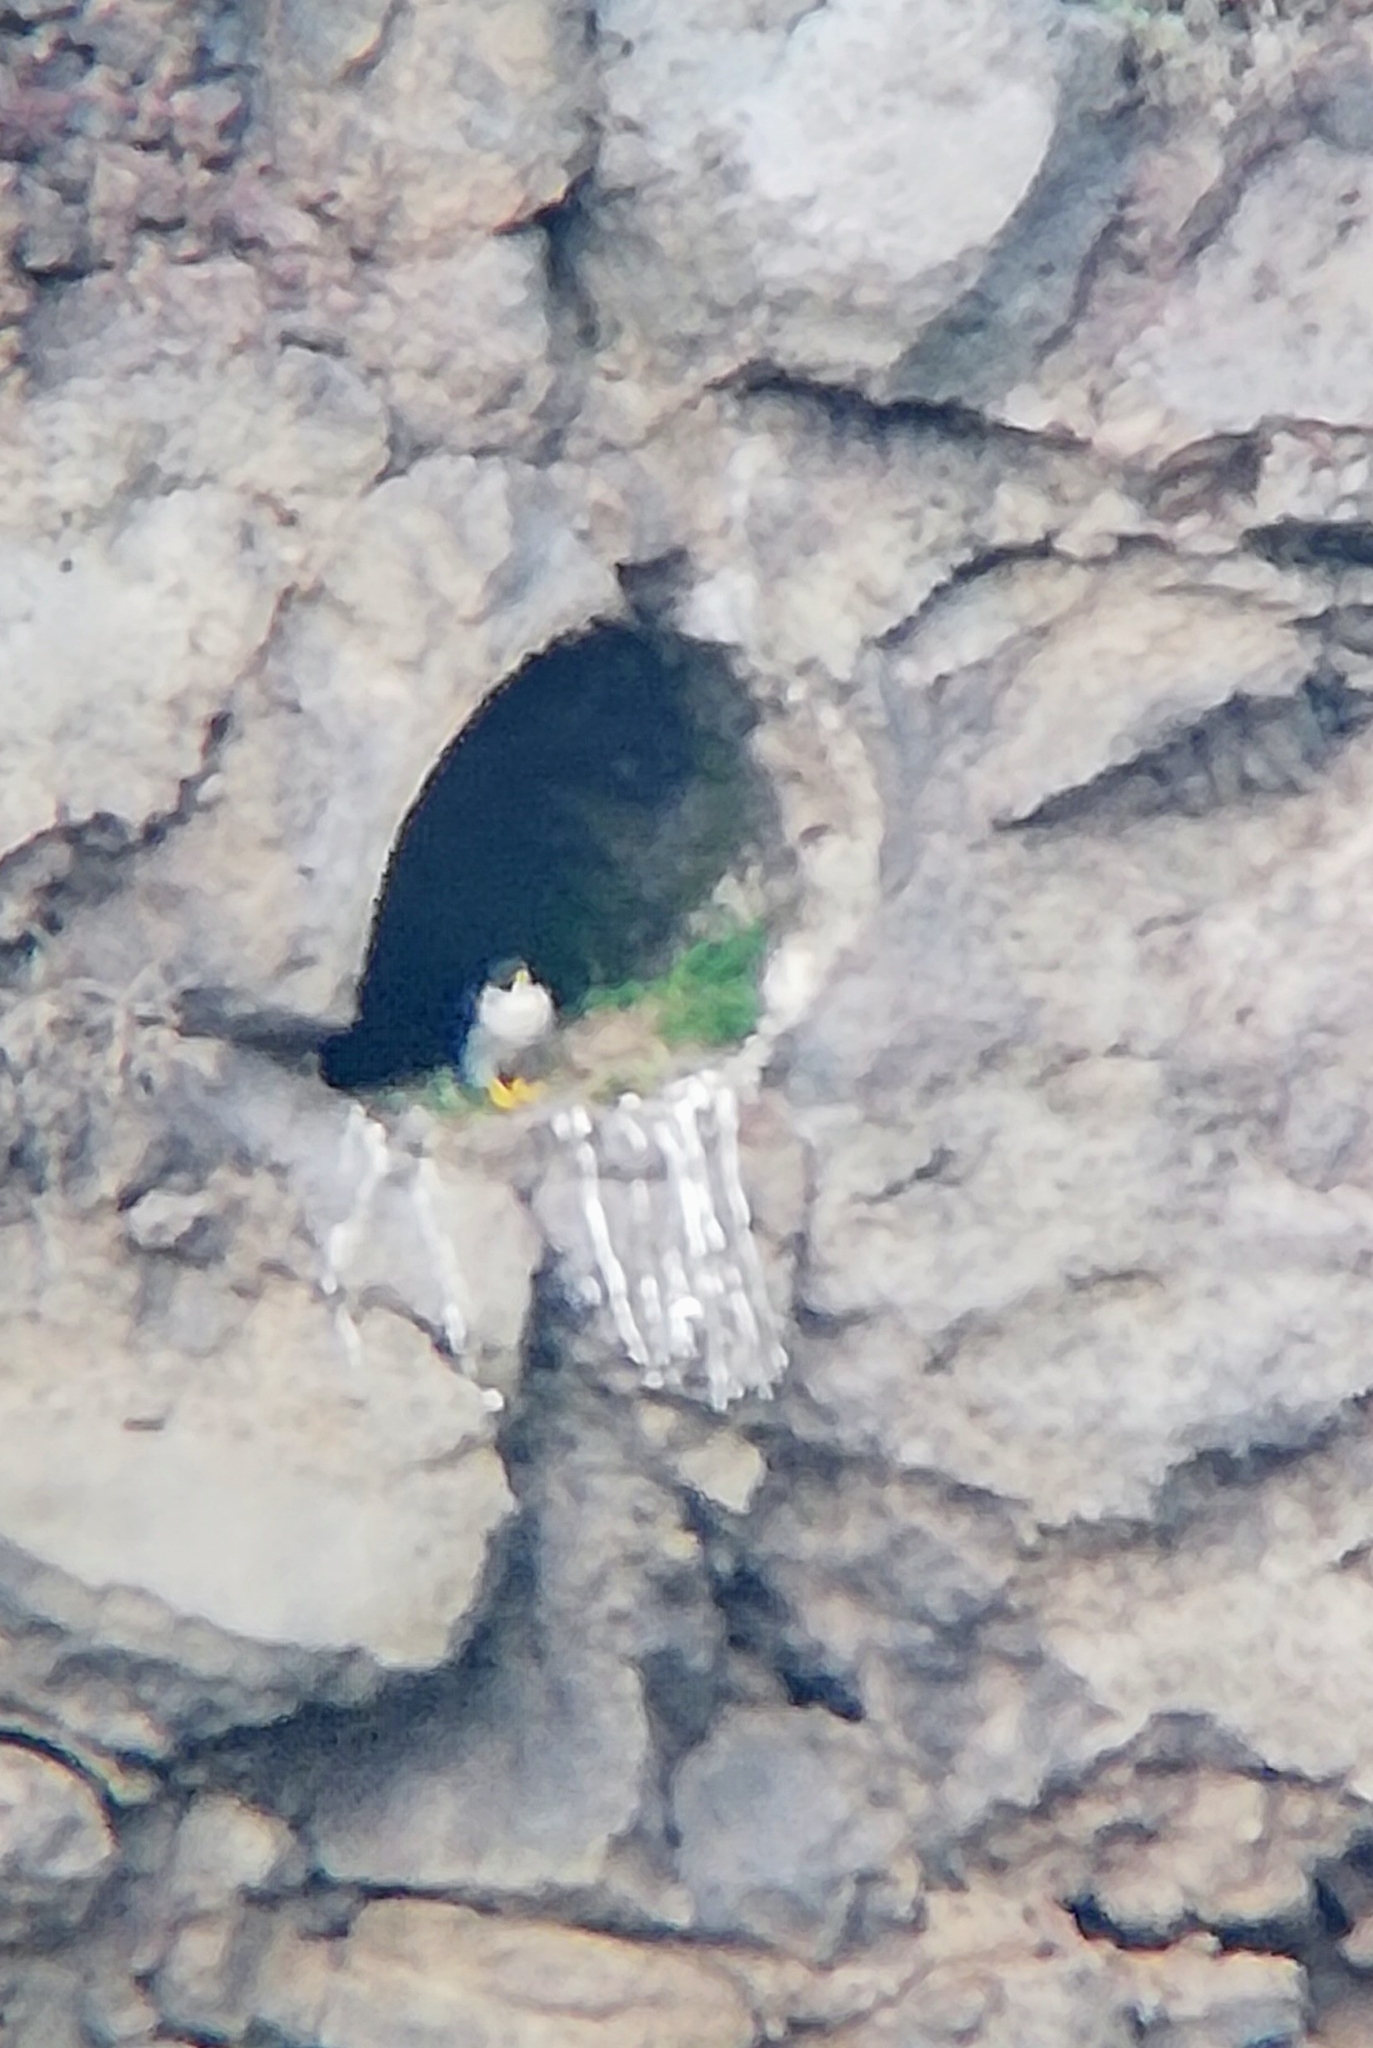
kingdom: Animalia
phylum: Chordata
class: Aves
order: Falconiformes
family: Falconidae
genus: Falco
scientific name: Falco peregrinus
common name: Peregrine falcon
